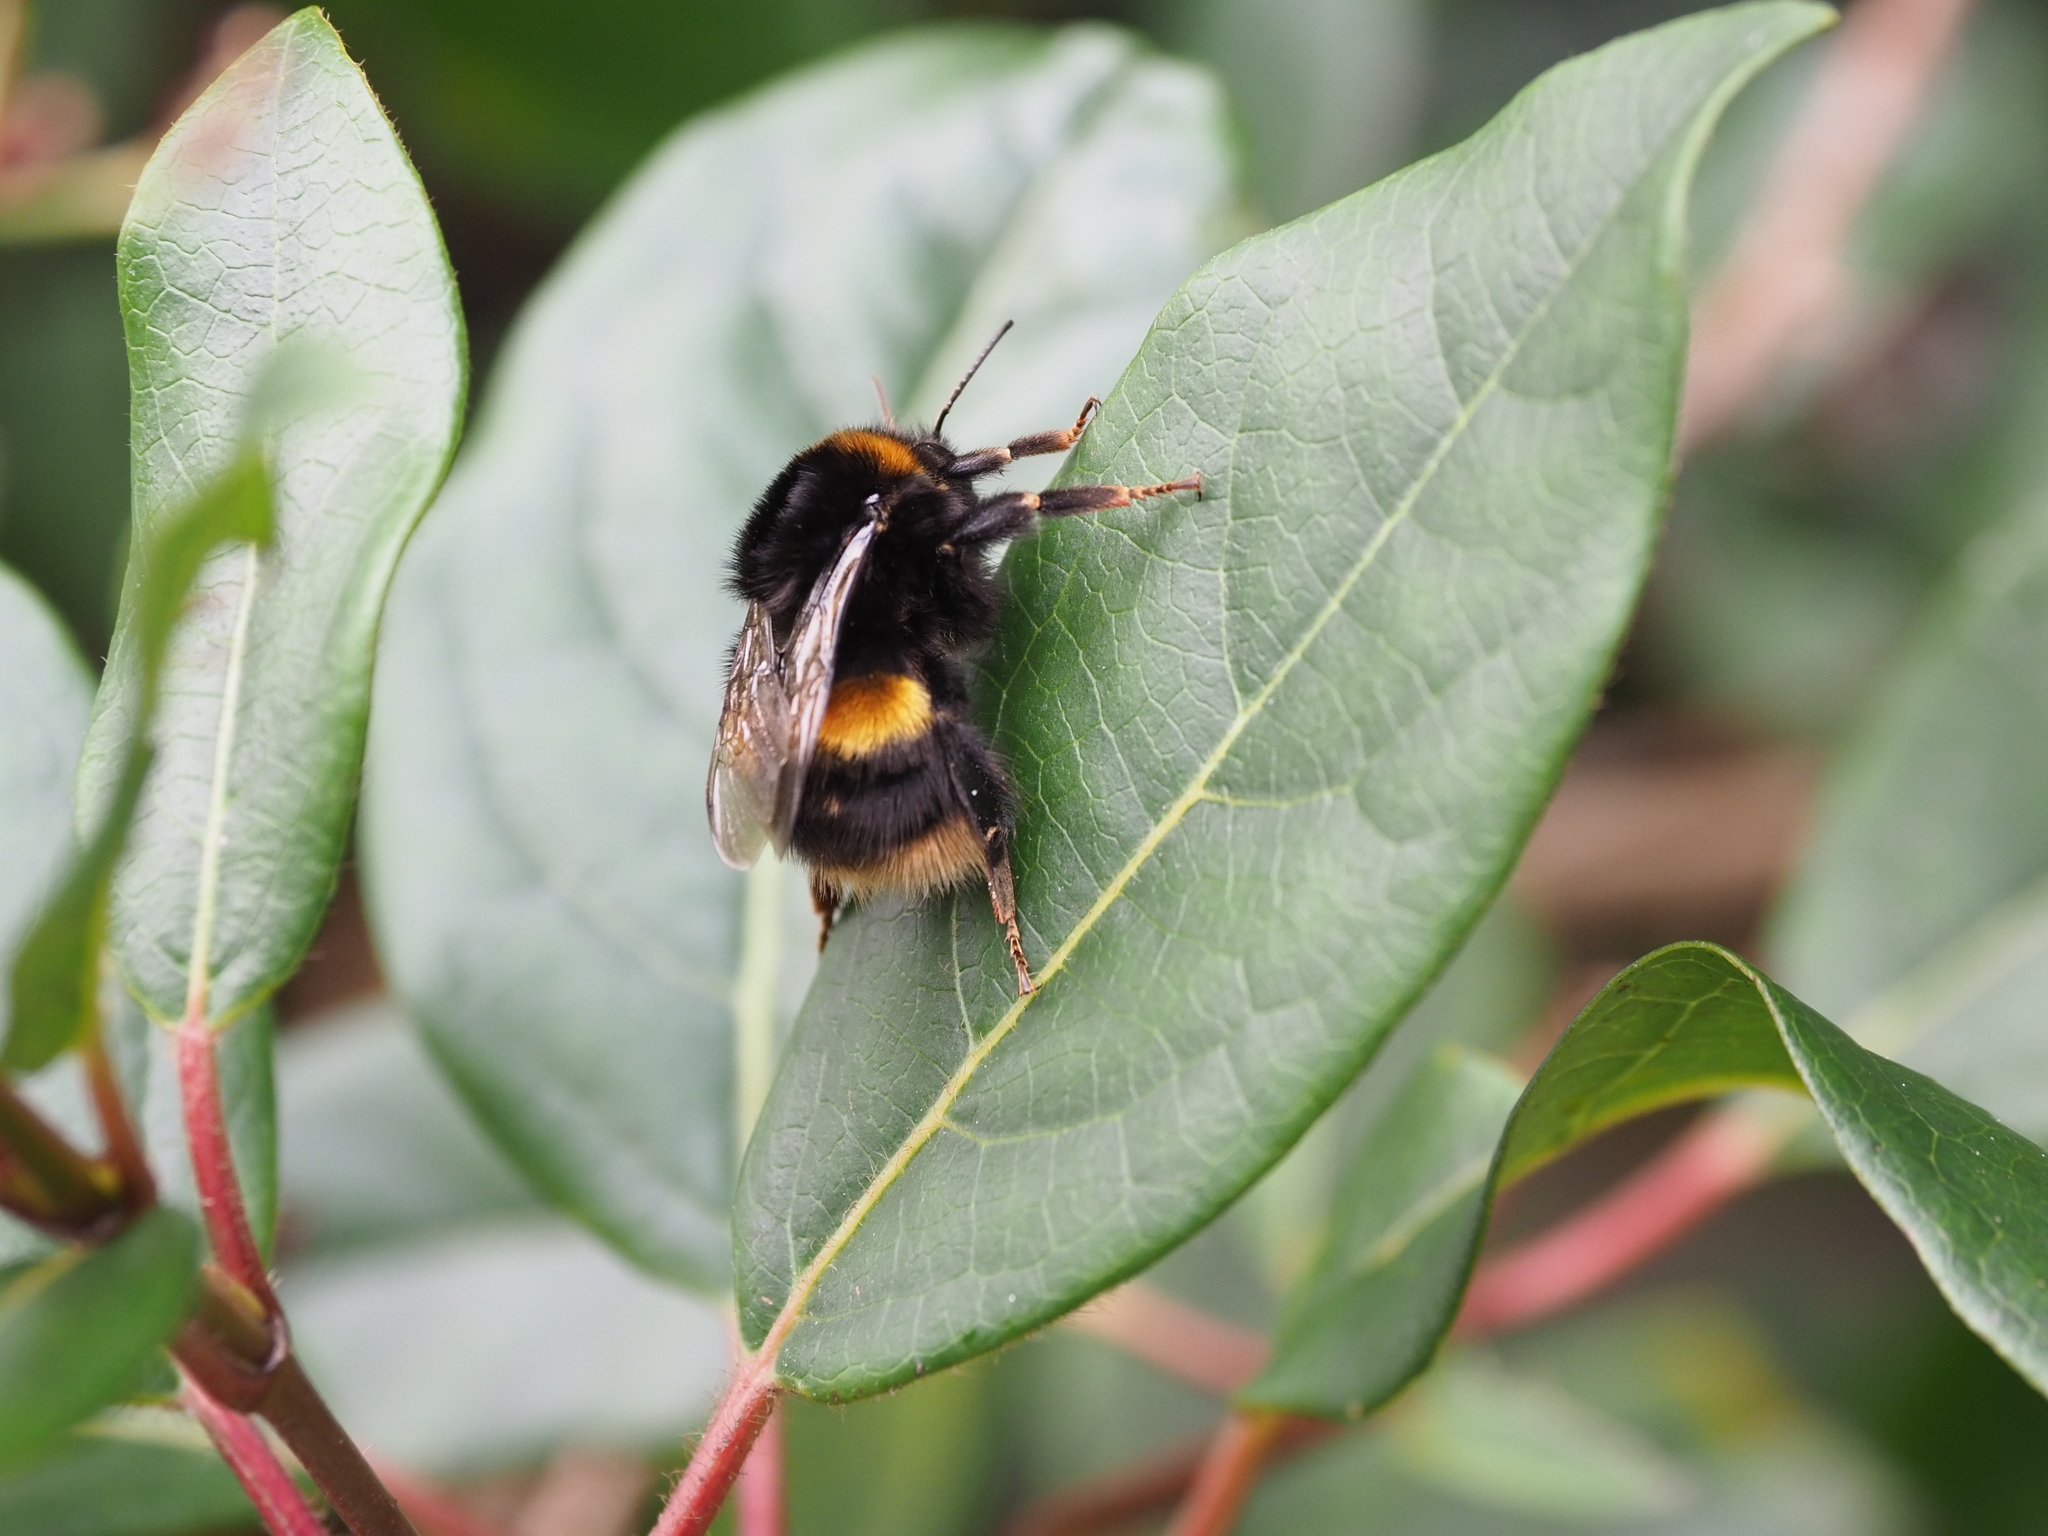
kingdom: Animalia
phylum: Arthropoda
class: Insecta
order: Hymenoptera
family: Apidae
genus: Bombus
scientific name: Bombus terrestris
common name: Buff-tailed bumblebee
